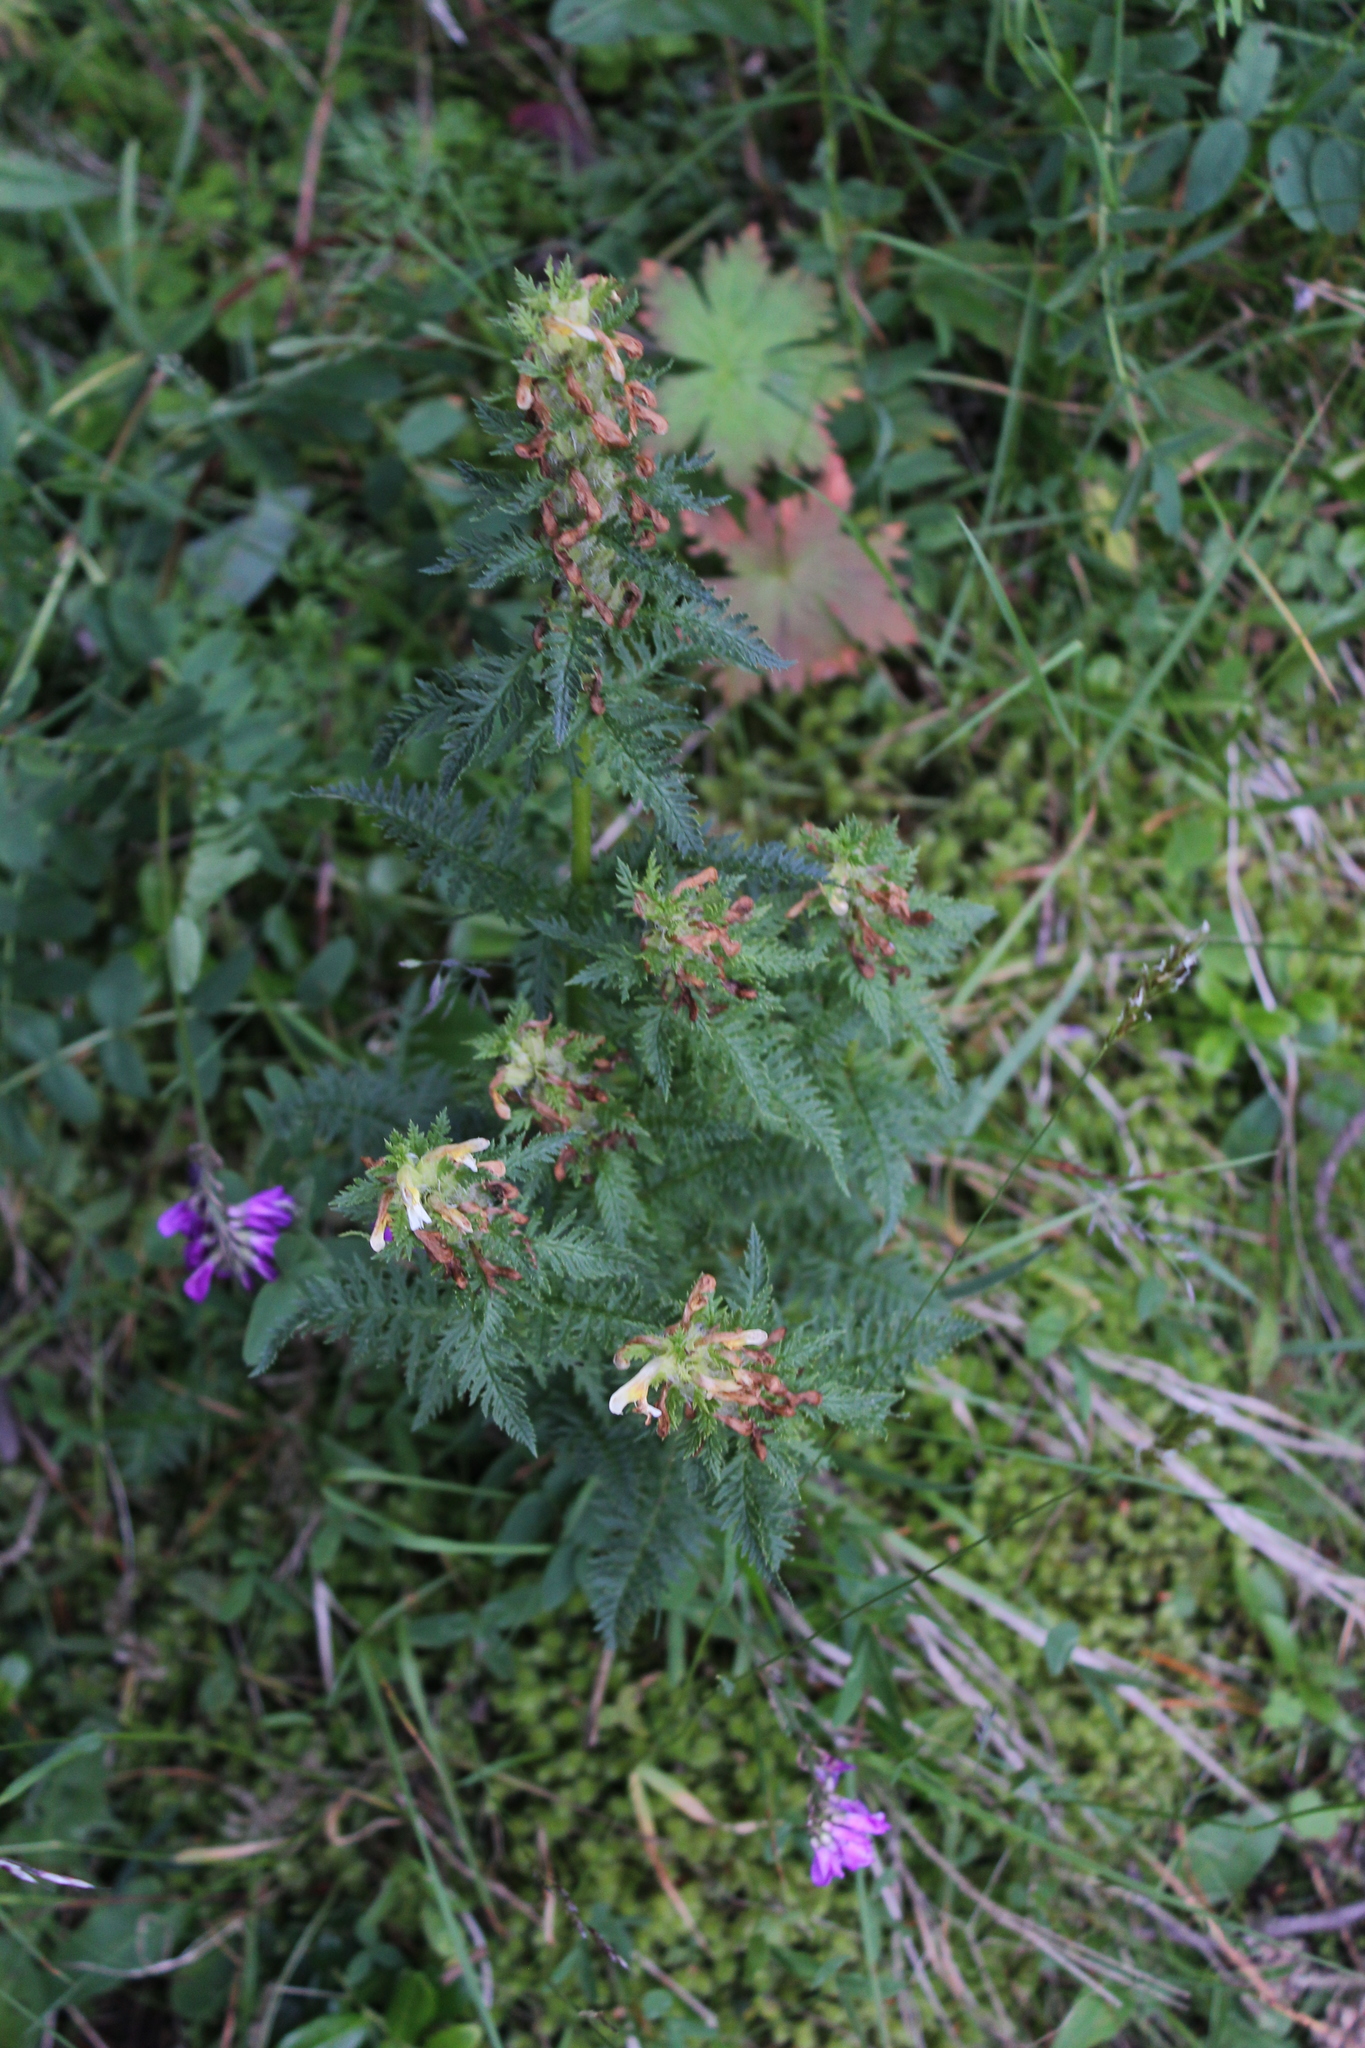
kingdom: Plantae
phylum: Tracheophyta
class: Magnoliopsida
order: Lamiales
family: Orobanchaceae
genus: Pedicularis
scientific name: Pedicularis condensata
